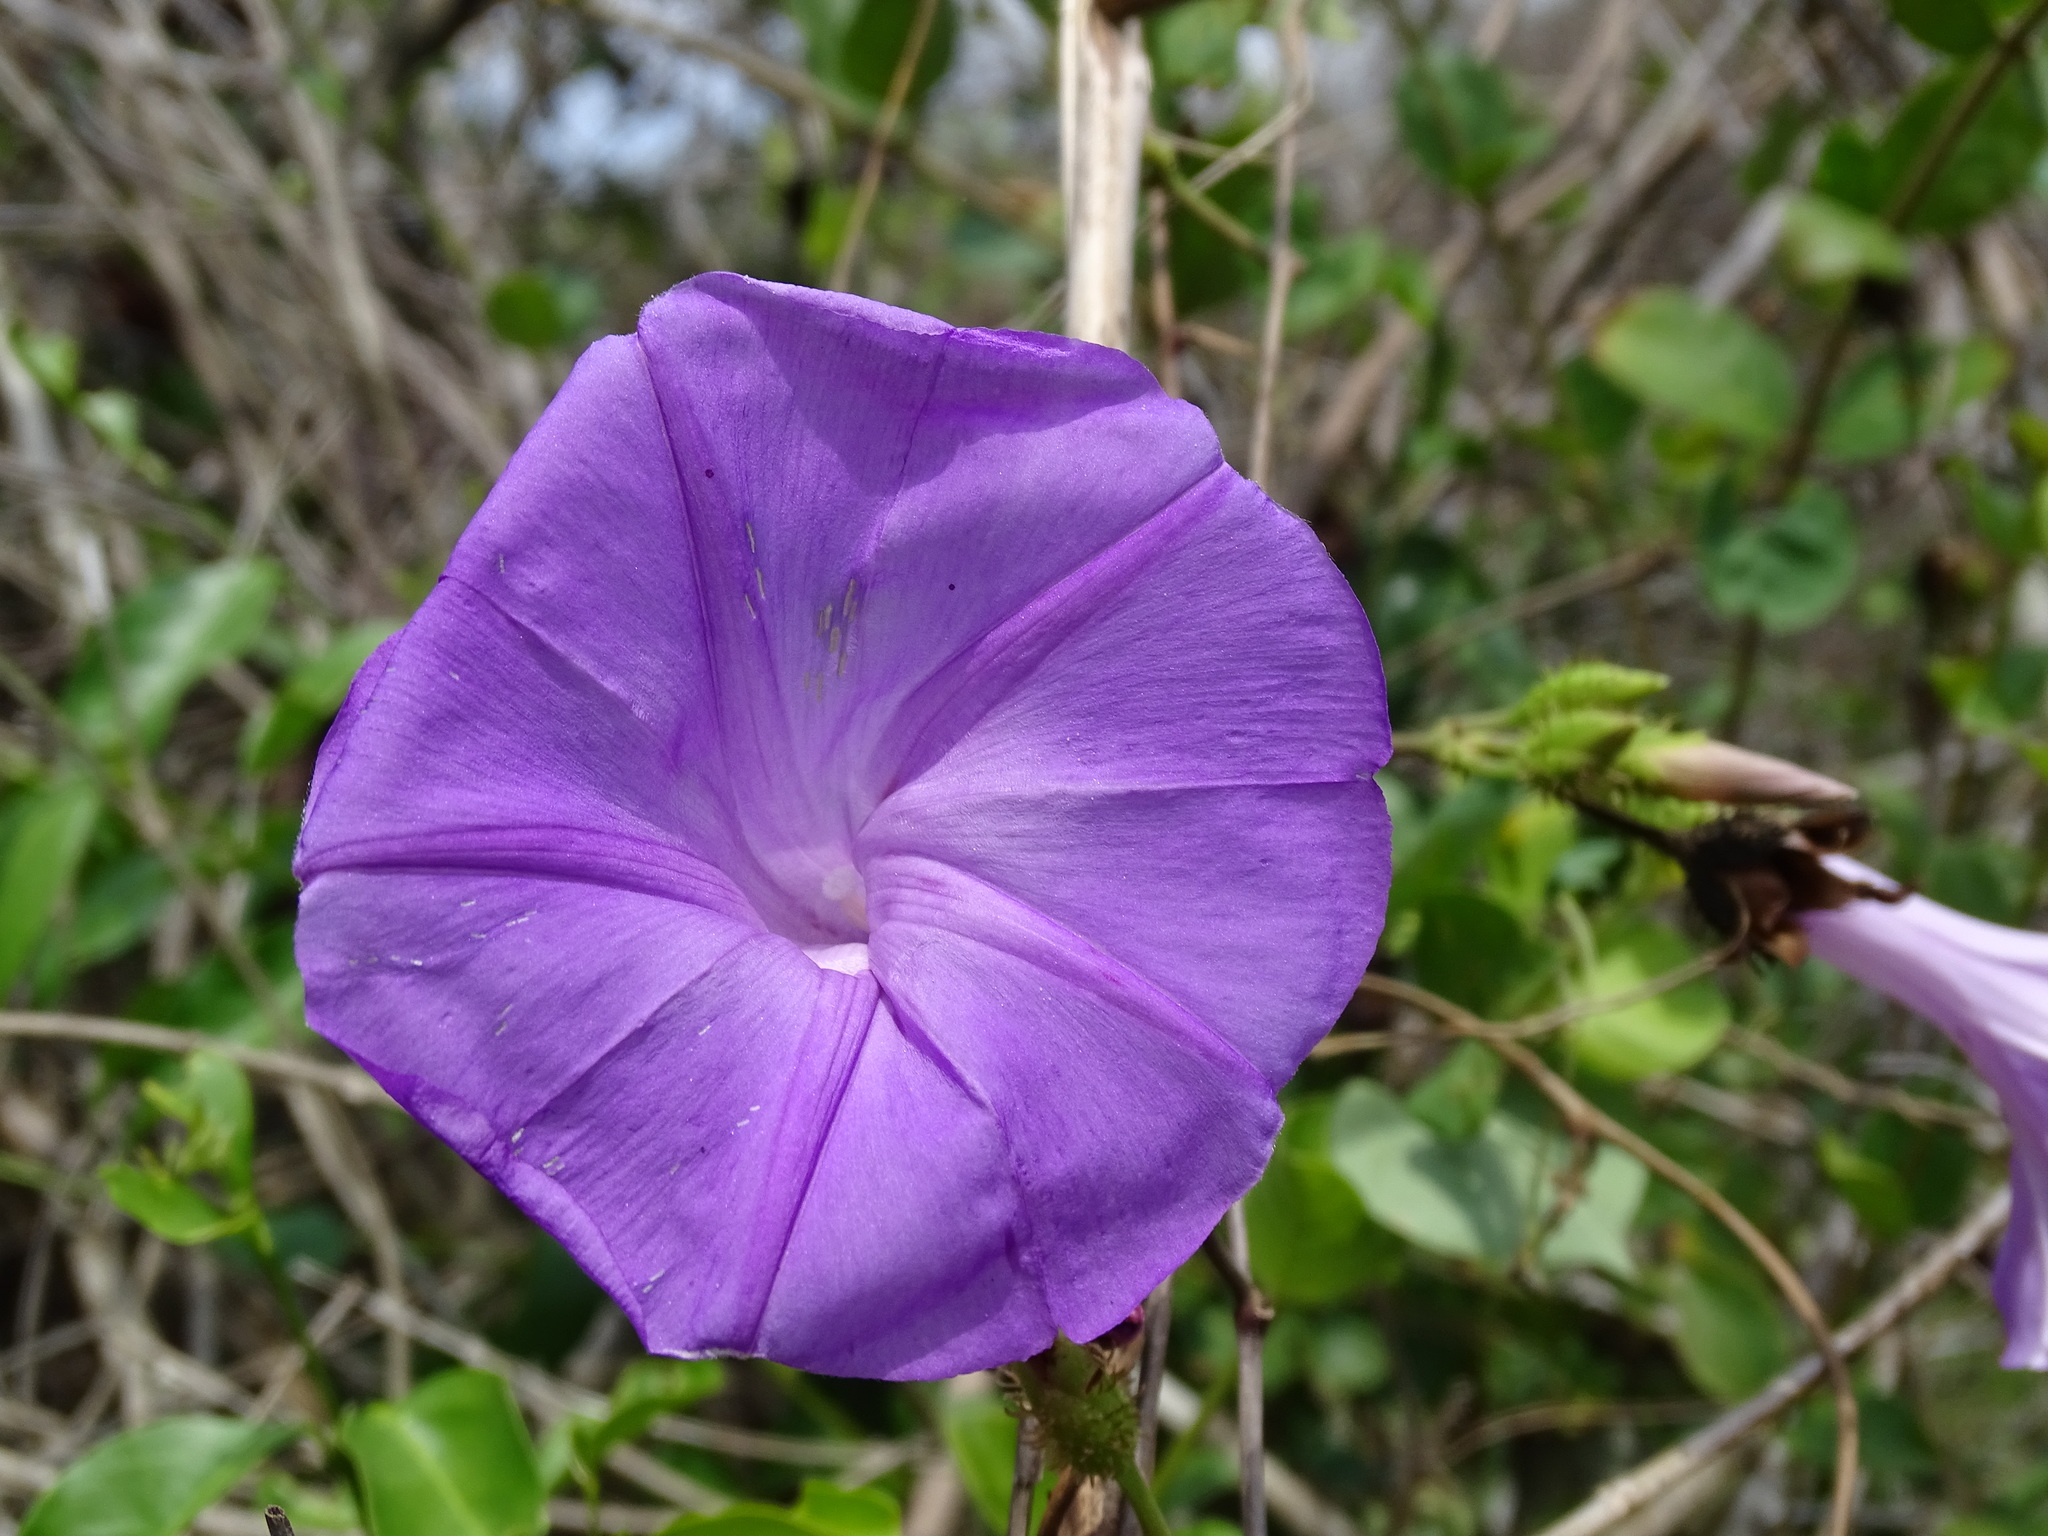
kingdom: Plantae
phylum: Tracheophyta
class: Magnoliopsida
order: Solanales
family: Convolvulaceae
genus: Ipomoea
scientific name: Ipomoea crinicalyx
